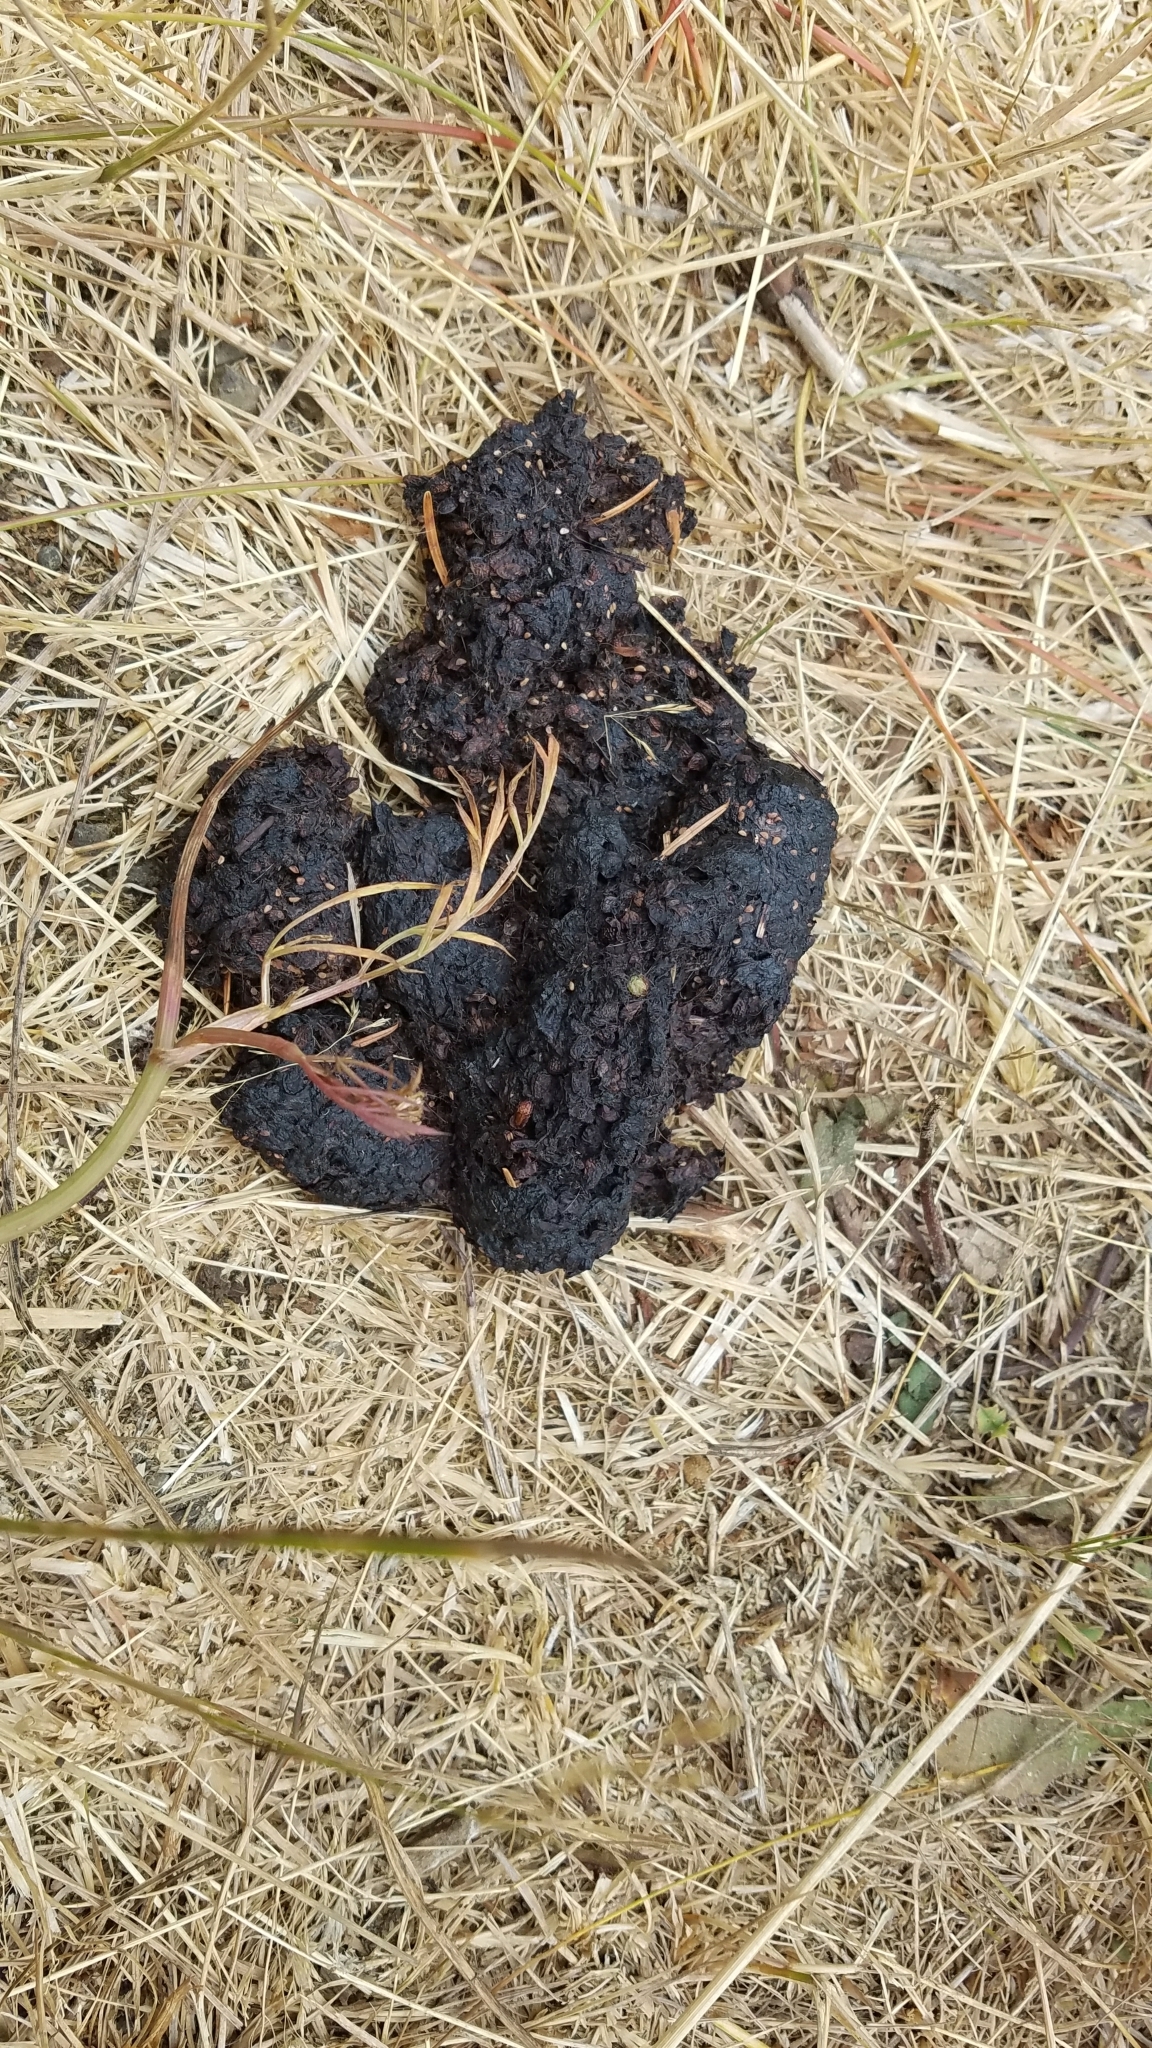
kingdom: Animalia
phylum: Chordata
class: Mammalia
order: Carnivora
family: Ursidae
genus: Ursus
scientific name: Ursus americanus
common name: American black bear
